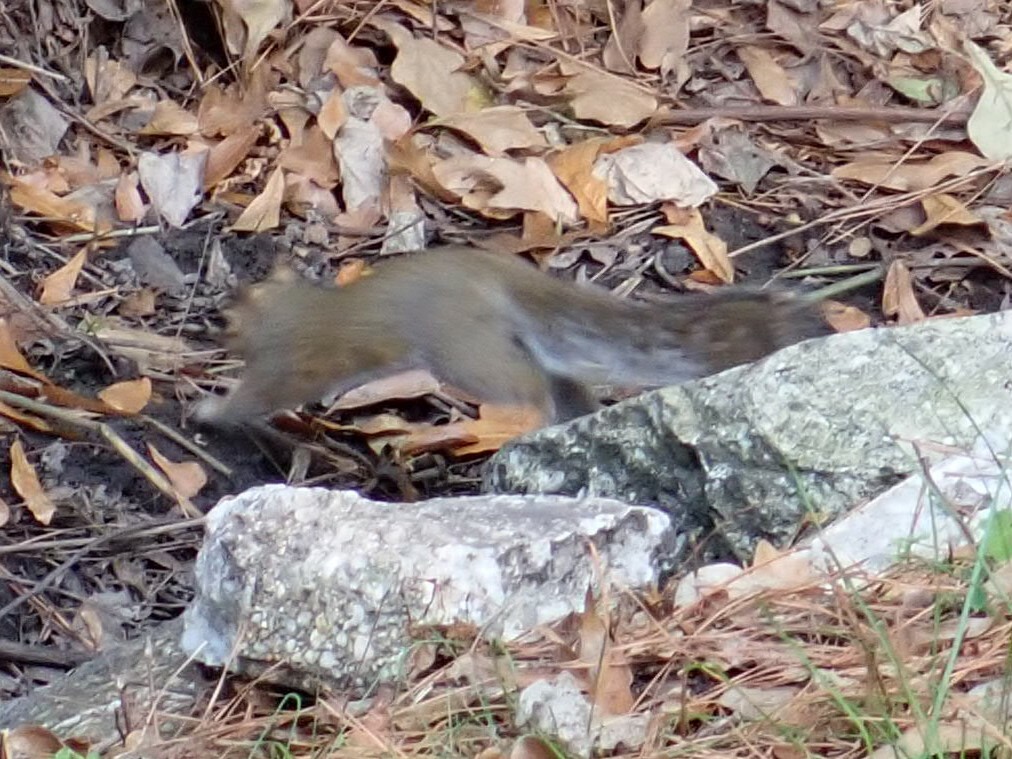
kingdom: Animalia
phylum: Chordata
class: Mammalia
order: Rodentia
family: Sciuridae
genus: Sciurus
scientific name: Sciurus carolinensis
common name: Eastern gray squirrel
